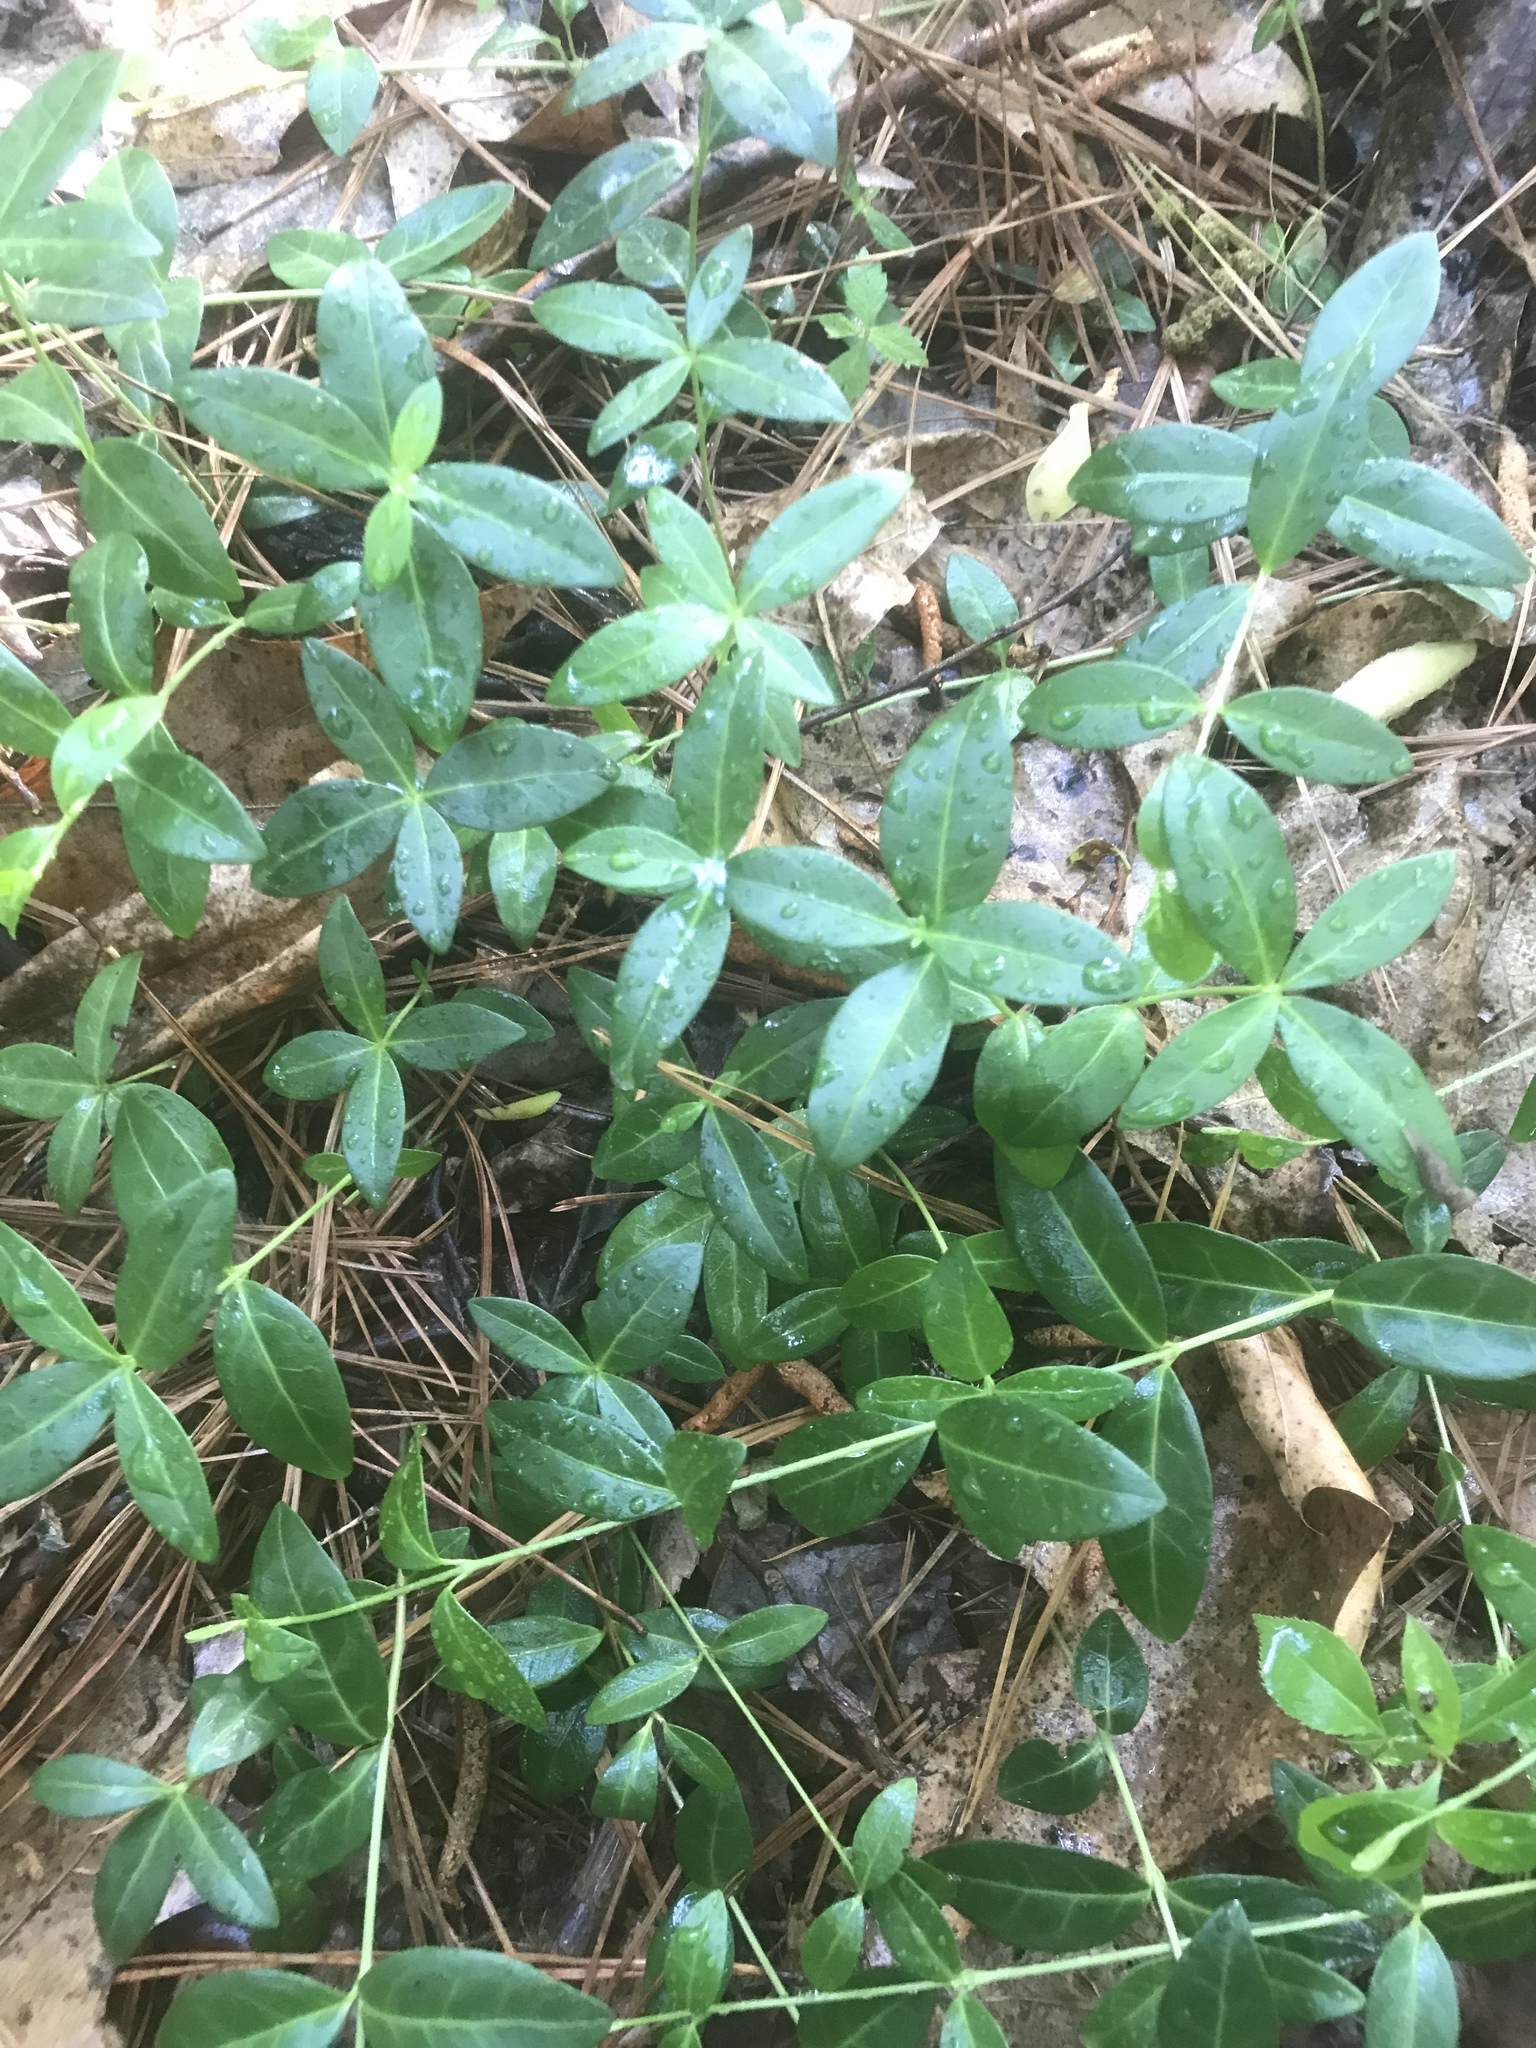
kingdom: Plantae
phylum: Tracheophyta
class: Magnoliopsida
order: Gentianales
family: Apocynaceae
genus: Vinca
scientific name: Vinca minor
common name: Lesser periwinkle
